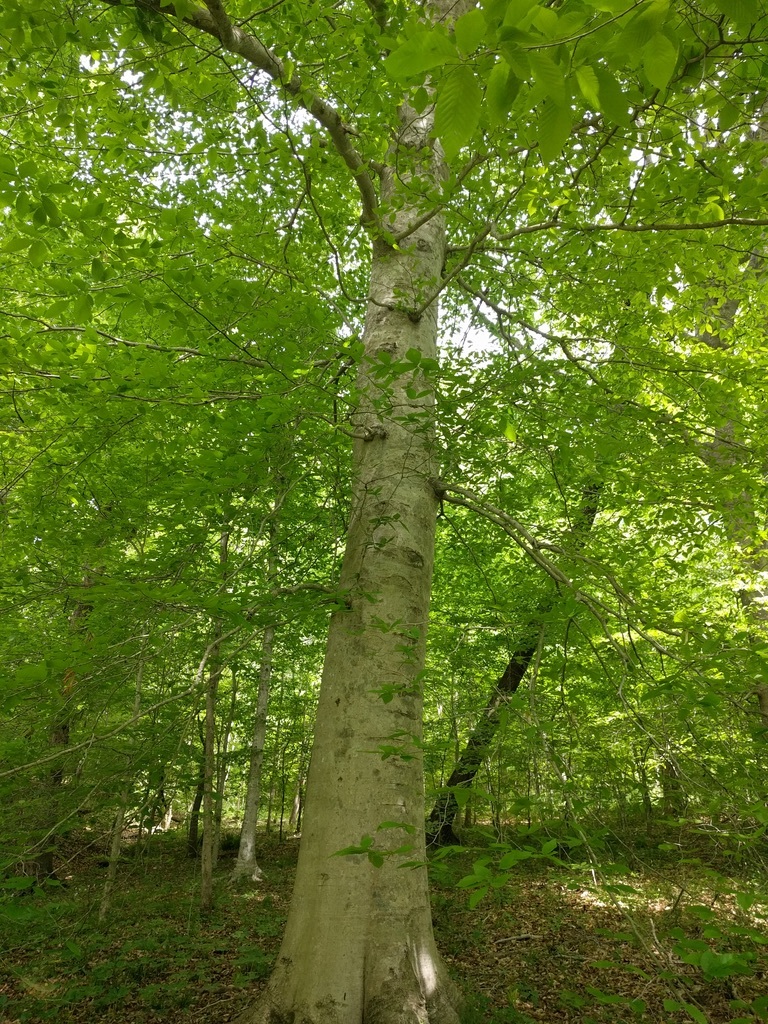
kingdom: Plantae
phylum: Tracheophyta
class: Magnoliopsida
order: Fagales
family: Fagaceae
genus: Fagus
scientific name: Fagus grandifolia
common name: American beech
